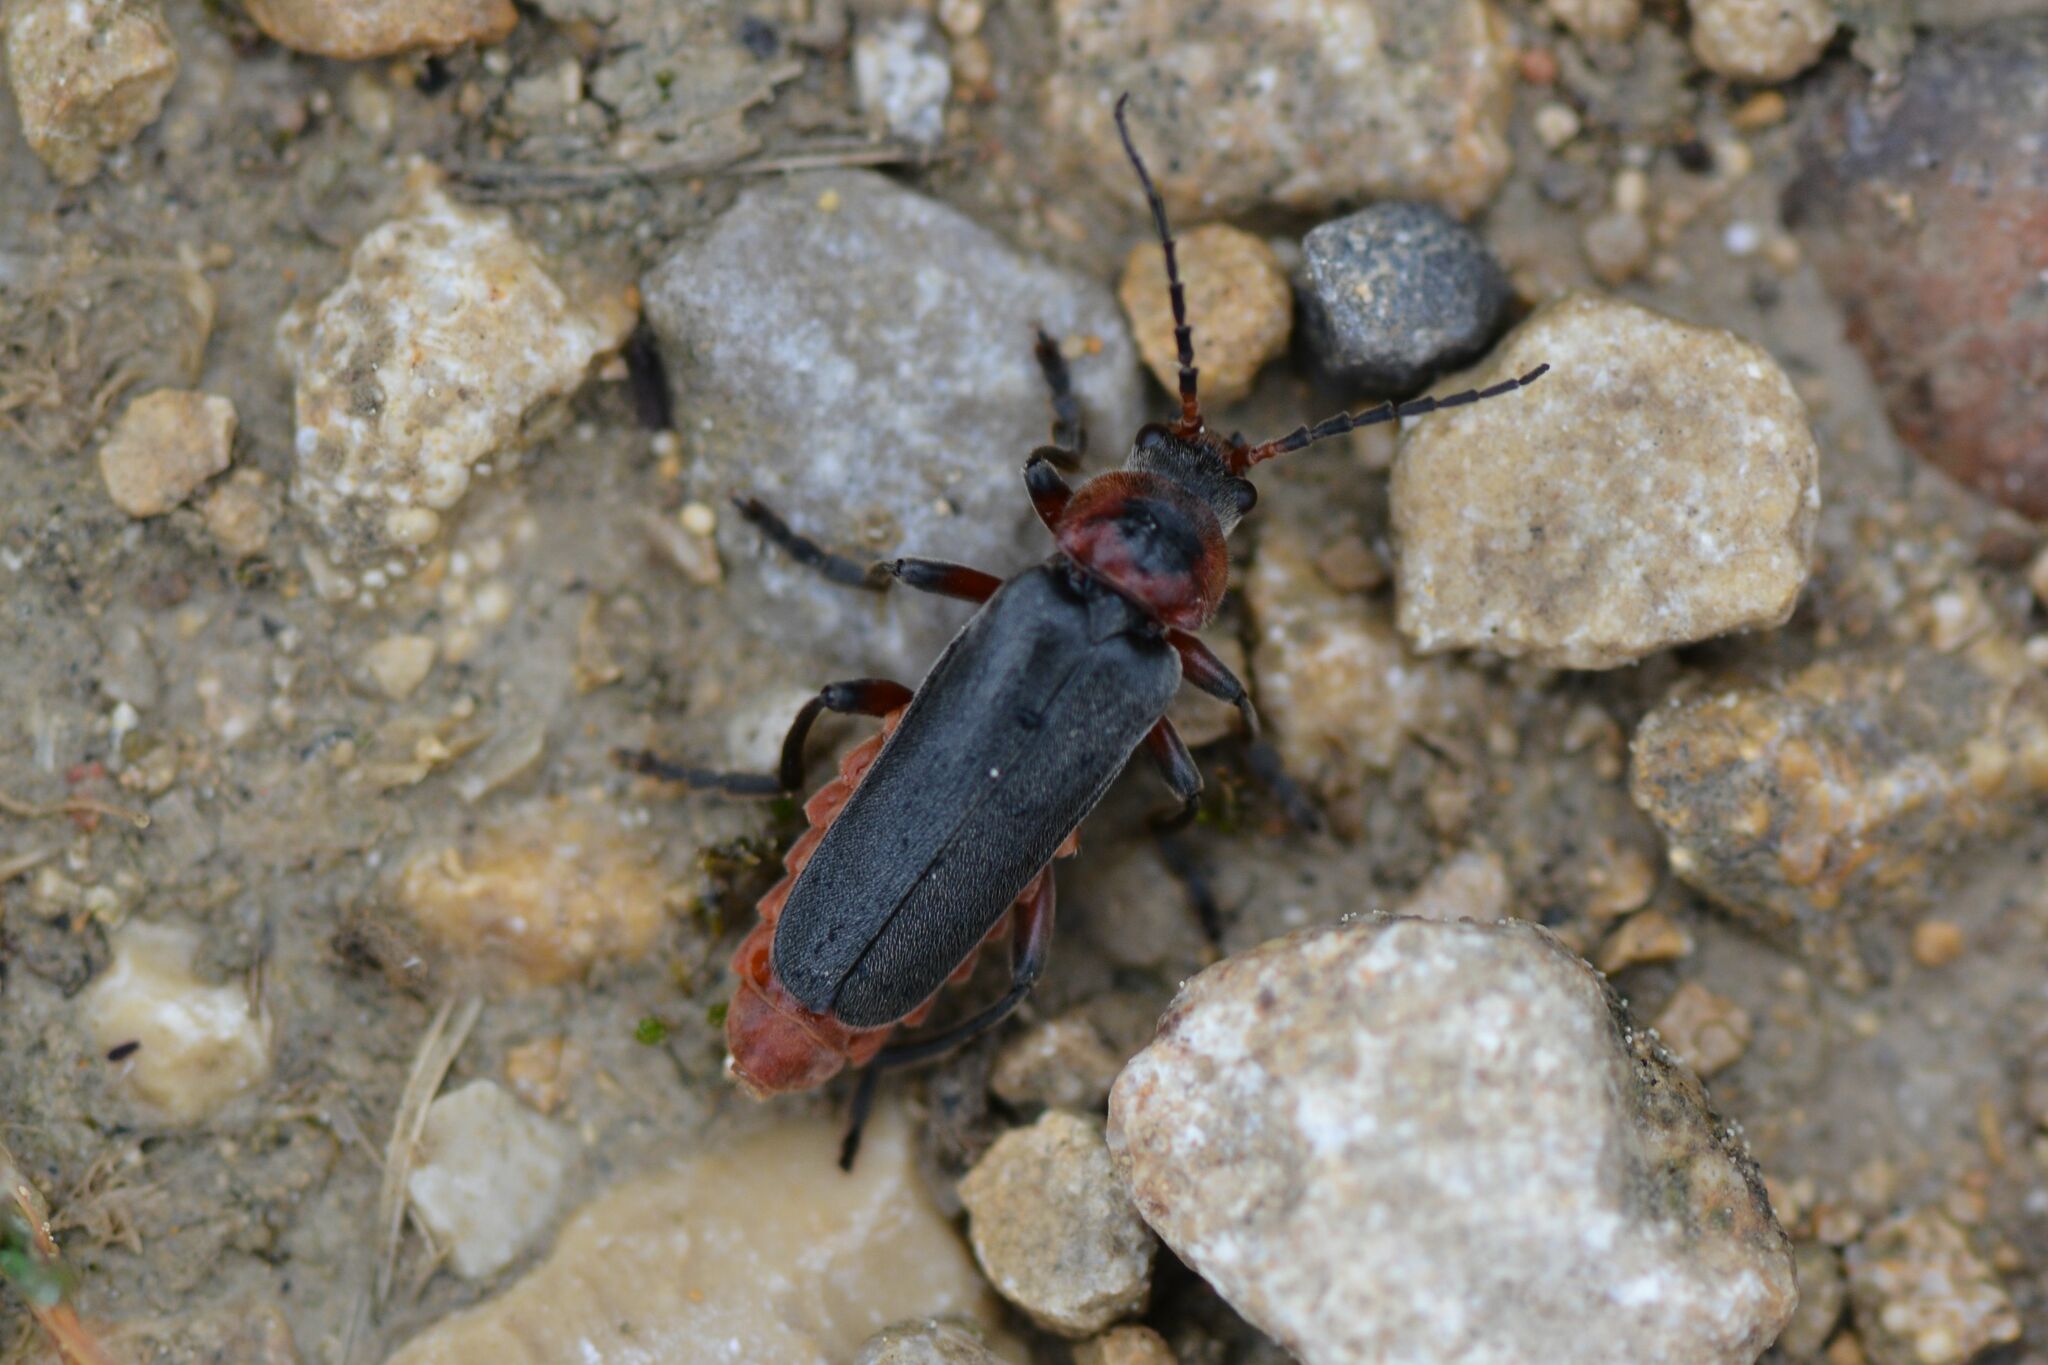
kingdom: Animalia
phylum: Arthropoda
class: Insecta
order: Coleoptera
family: Cantharidae
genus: Cantharis
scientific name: Cantharis rustica
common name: Soldier beetle
